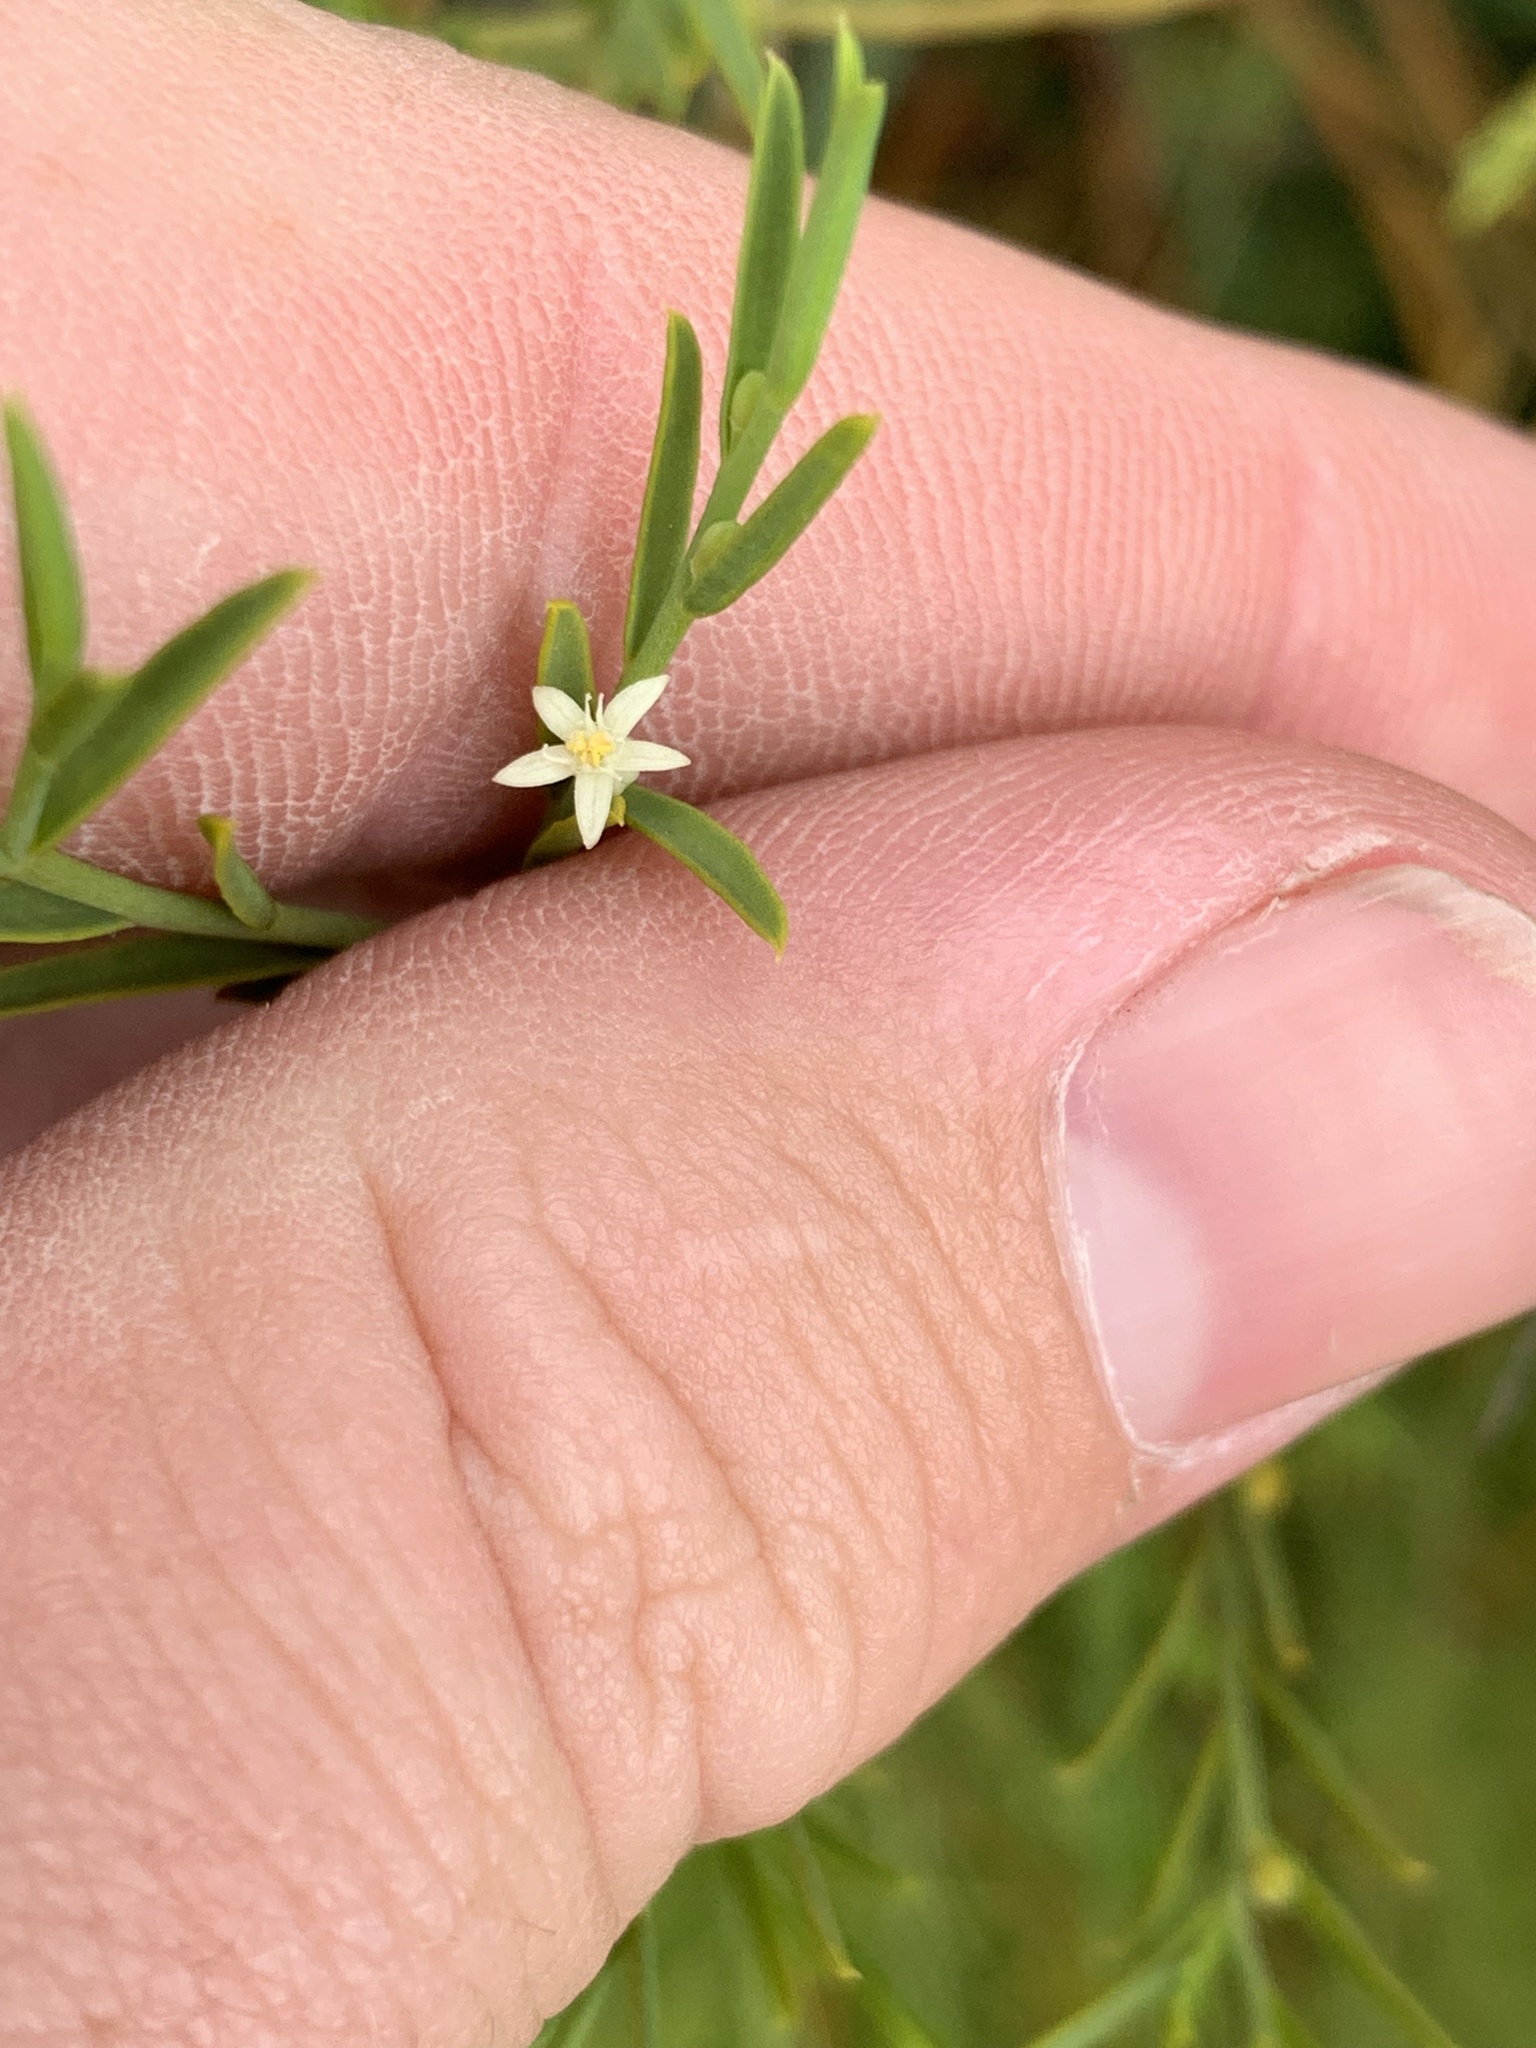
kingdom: Plantae
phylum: Tracheophyta
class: Magnoliopsida
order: Santalales
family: Olacaceae
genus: Olax
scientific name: Olax stricta
